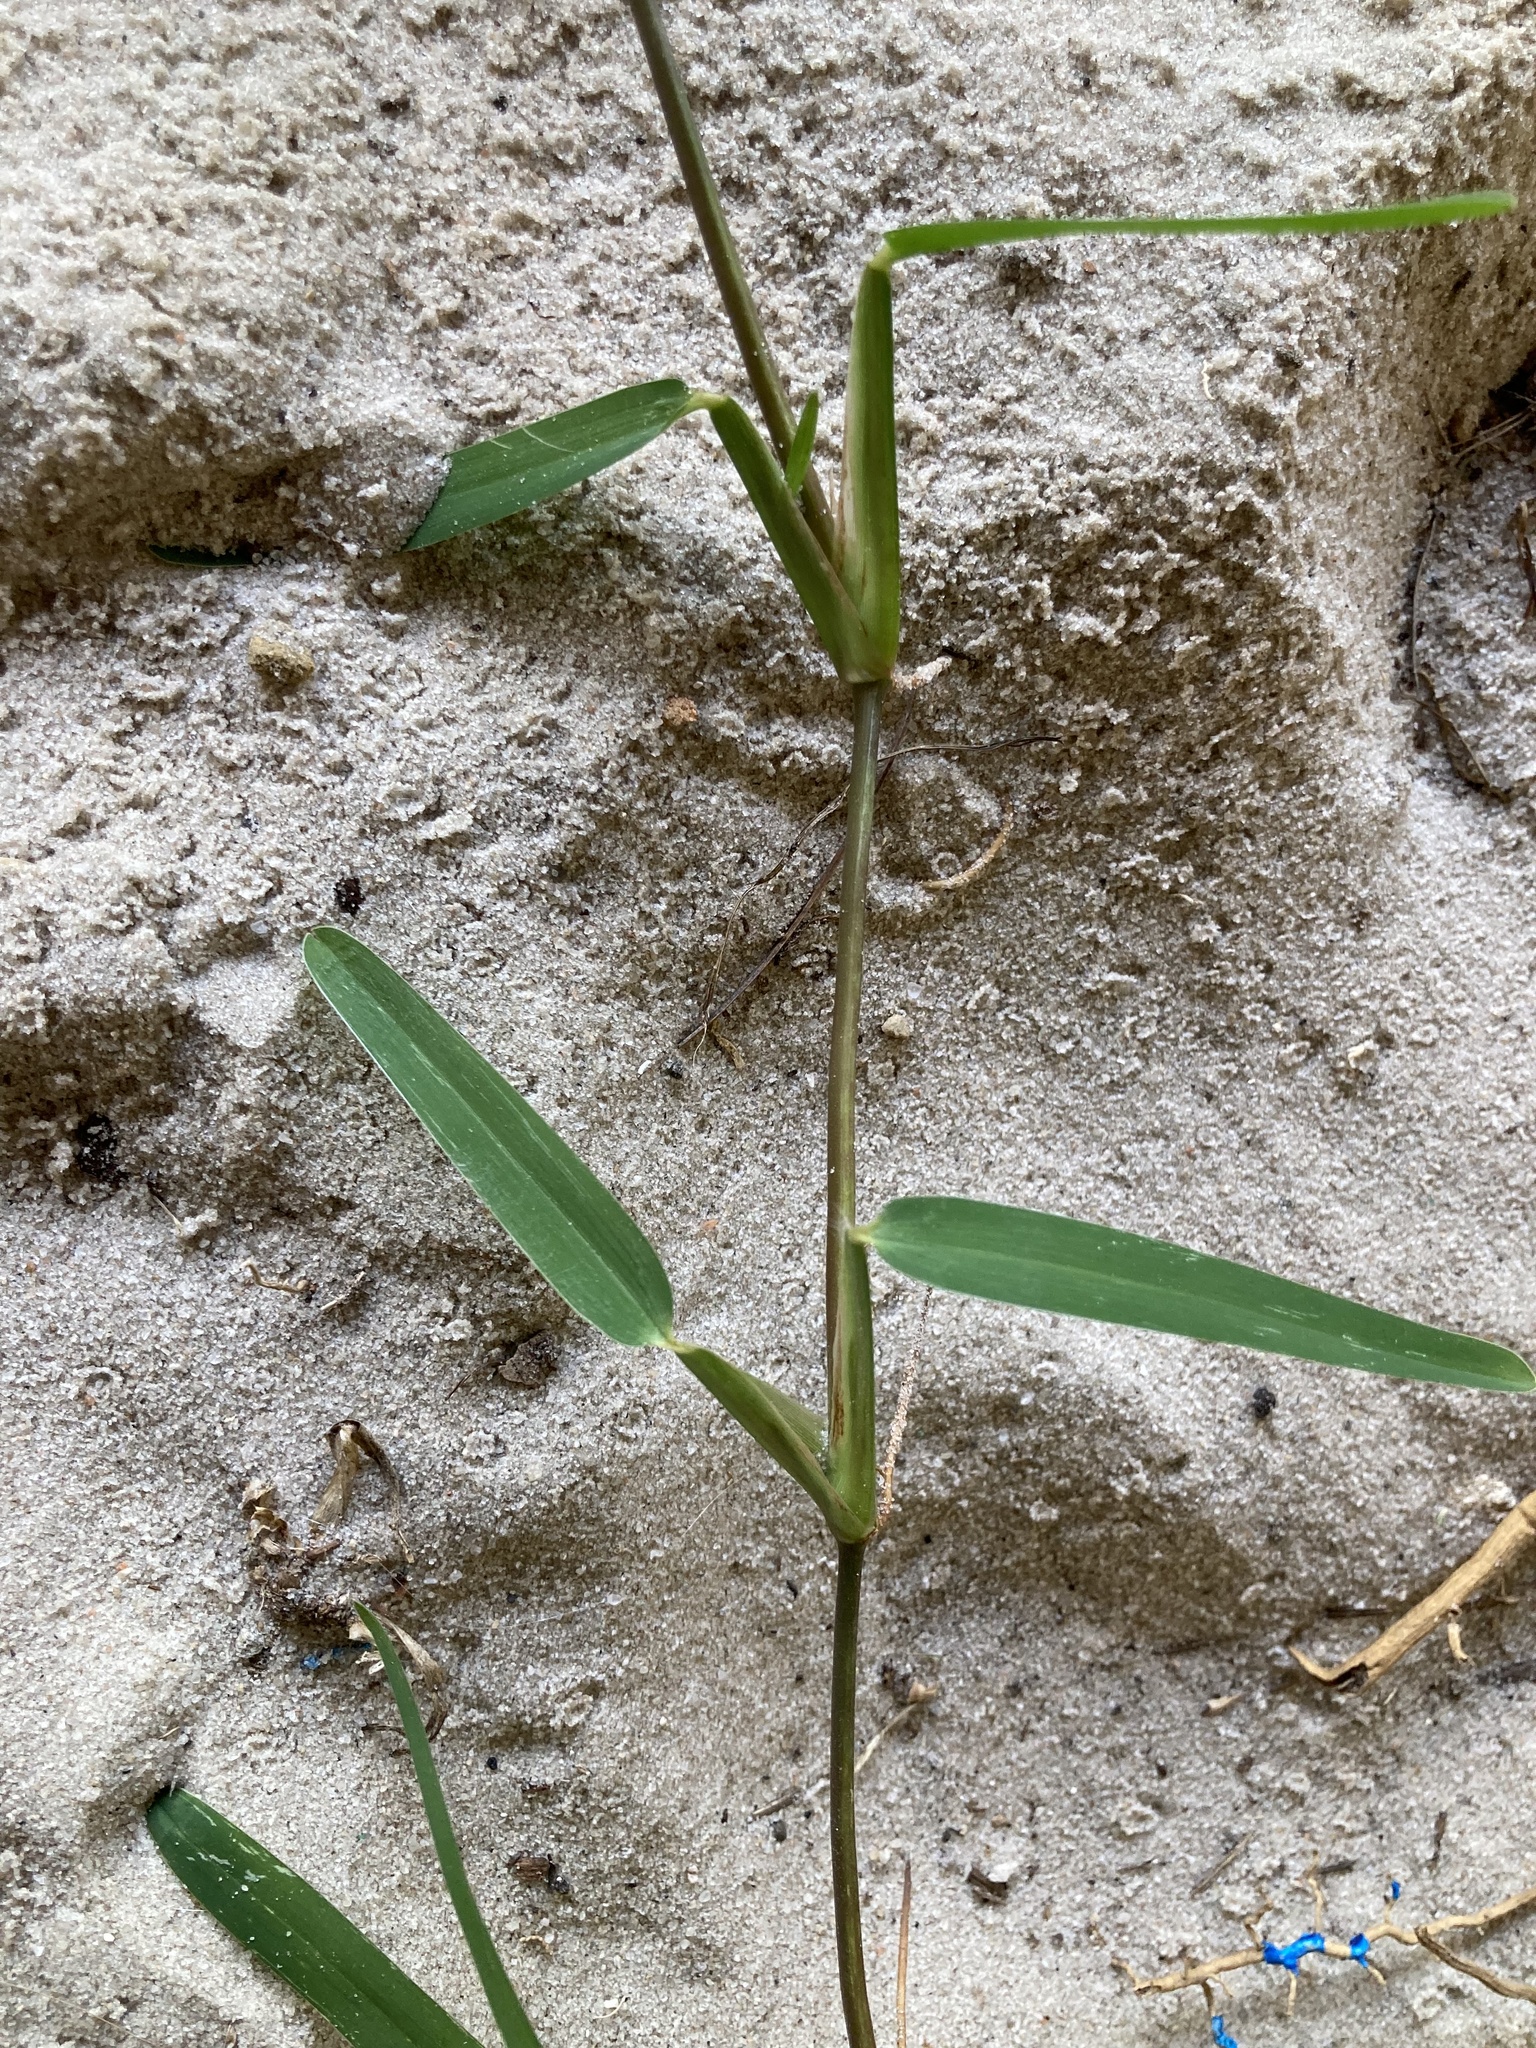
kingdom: Plantae
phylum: Tracheophyta
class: Liliopsida
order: Poales
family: Poaceae
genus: Stenotaphrum
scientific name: Stenotaphrum secundatum
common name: St. augustine grass
